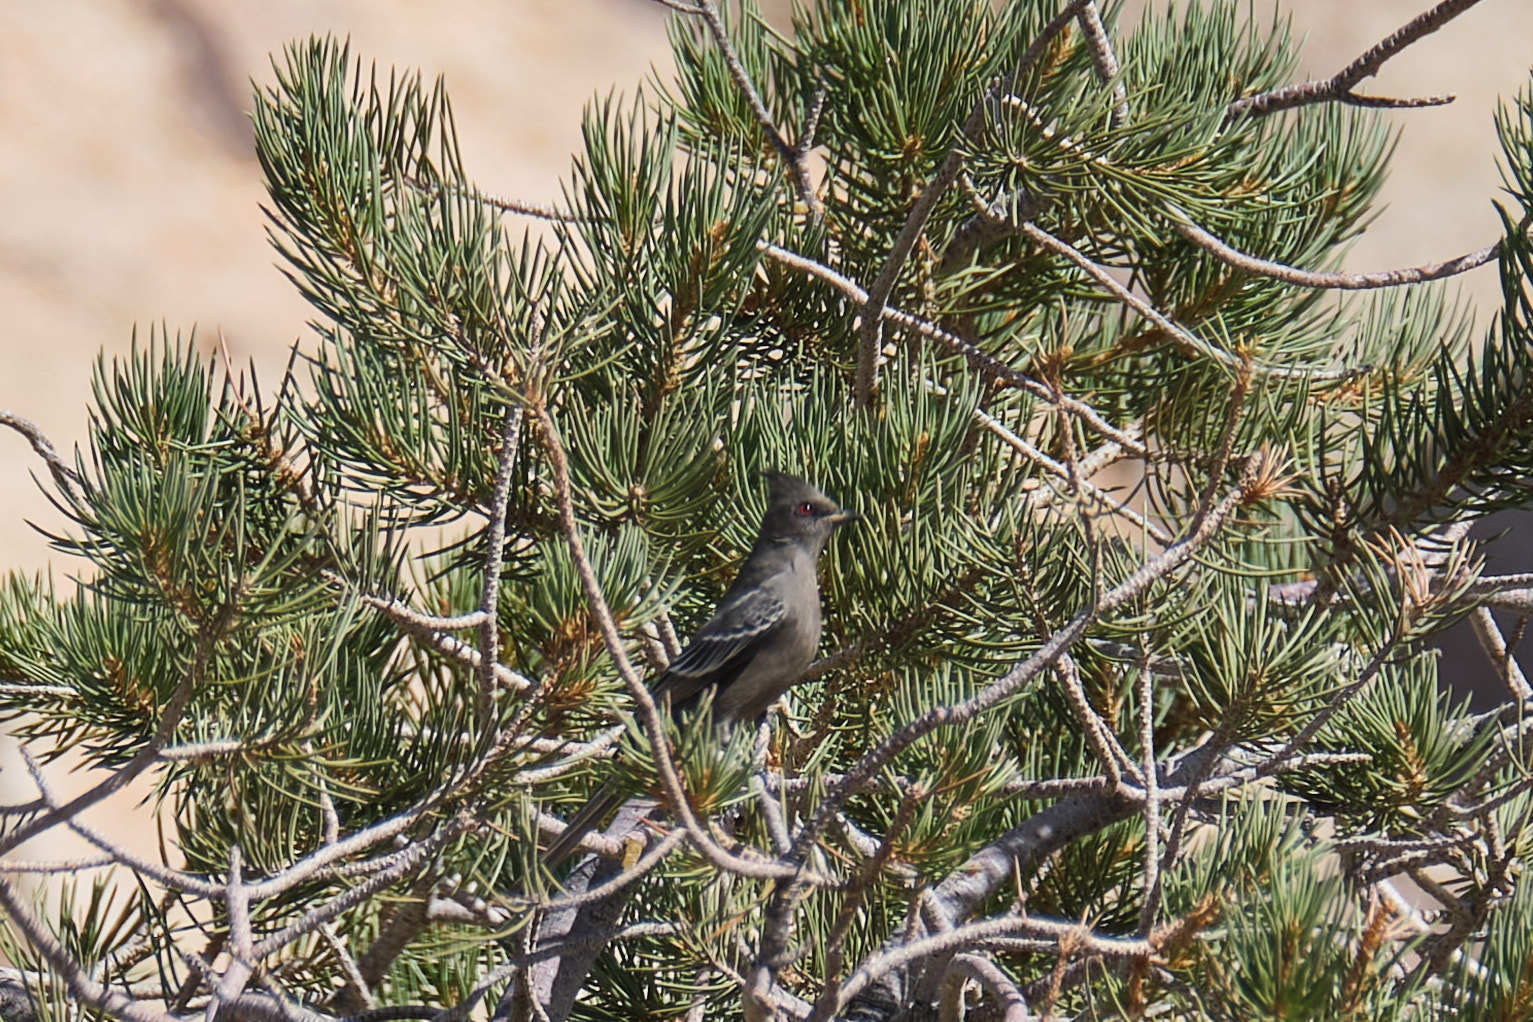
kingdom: Animalia
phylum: Chordata
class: Aves
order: Passeriformes
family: Ptilogonatidae
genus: Phainopepla
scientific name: Phainopepla nitens
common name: Phainopepla
